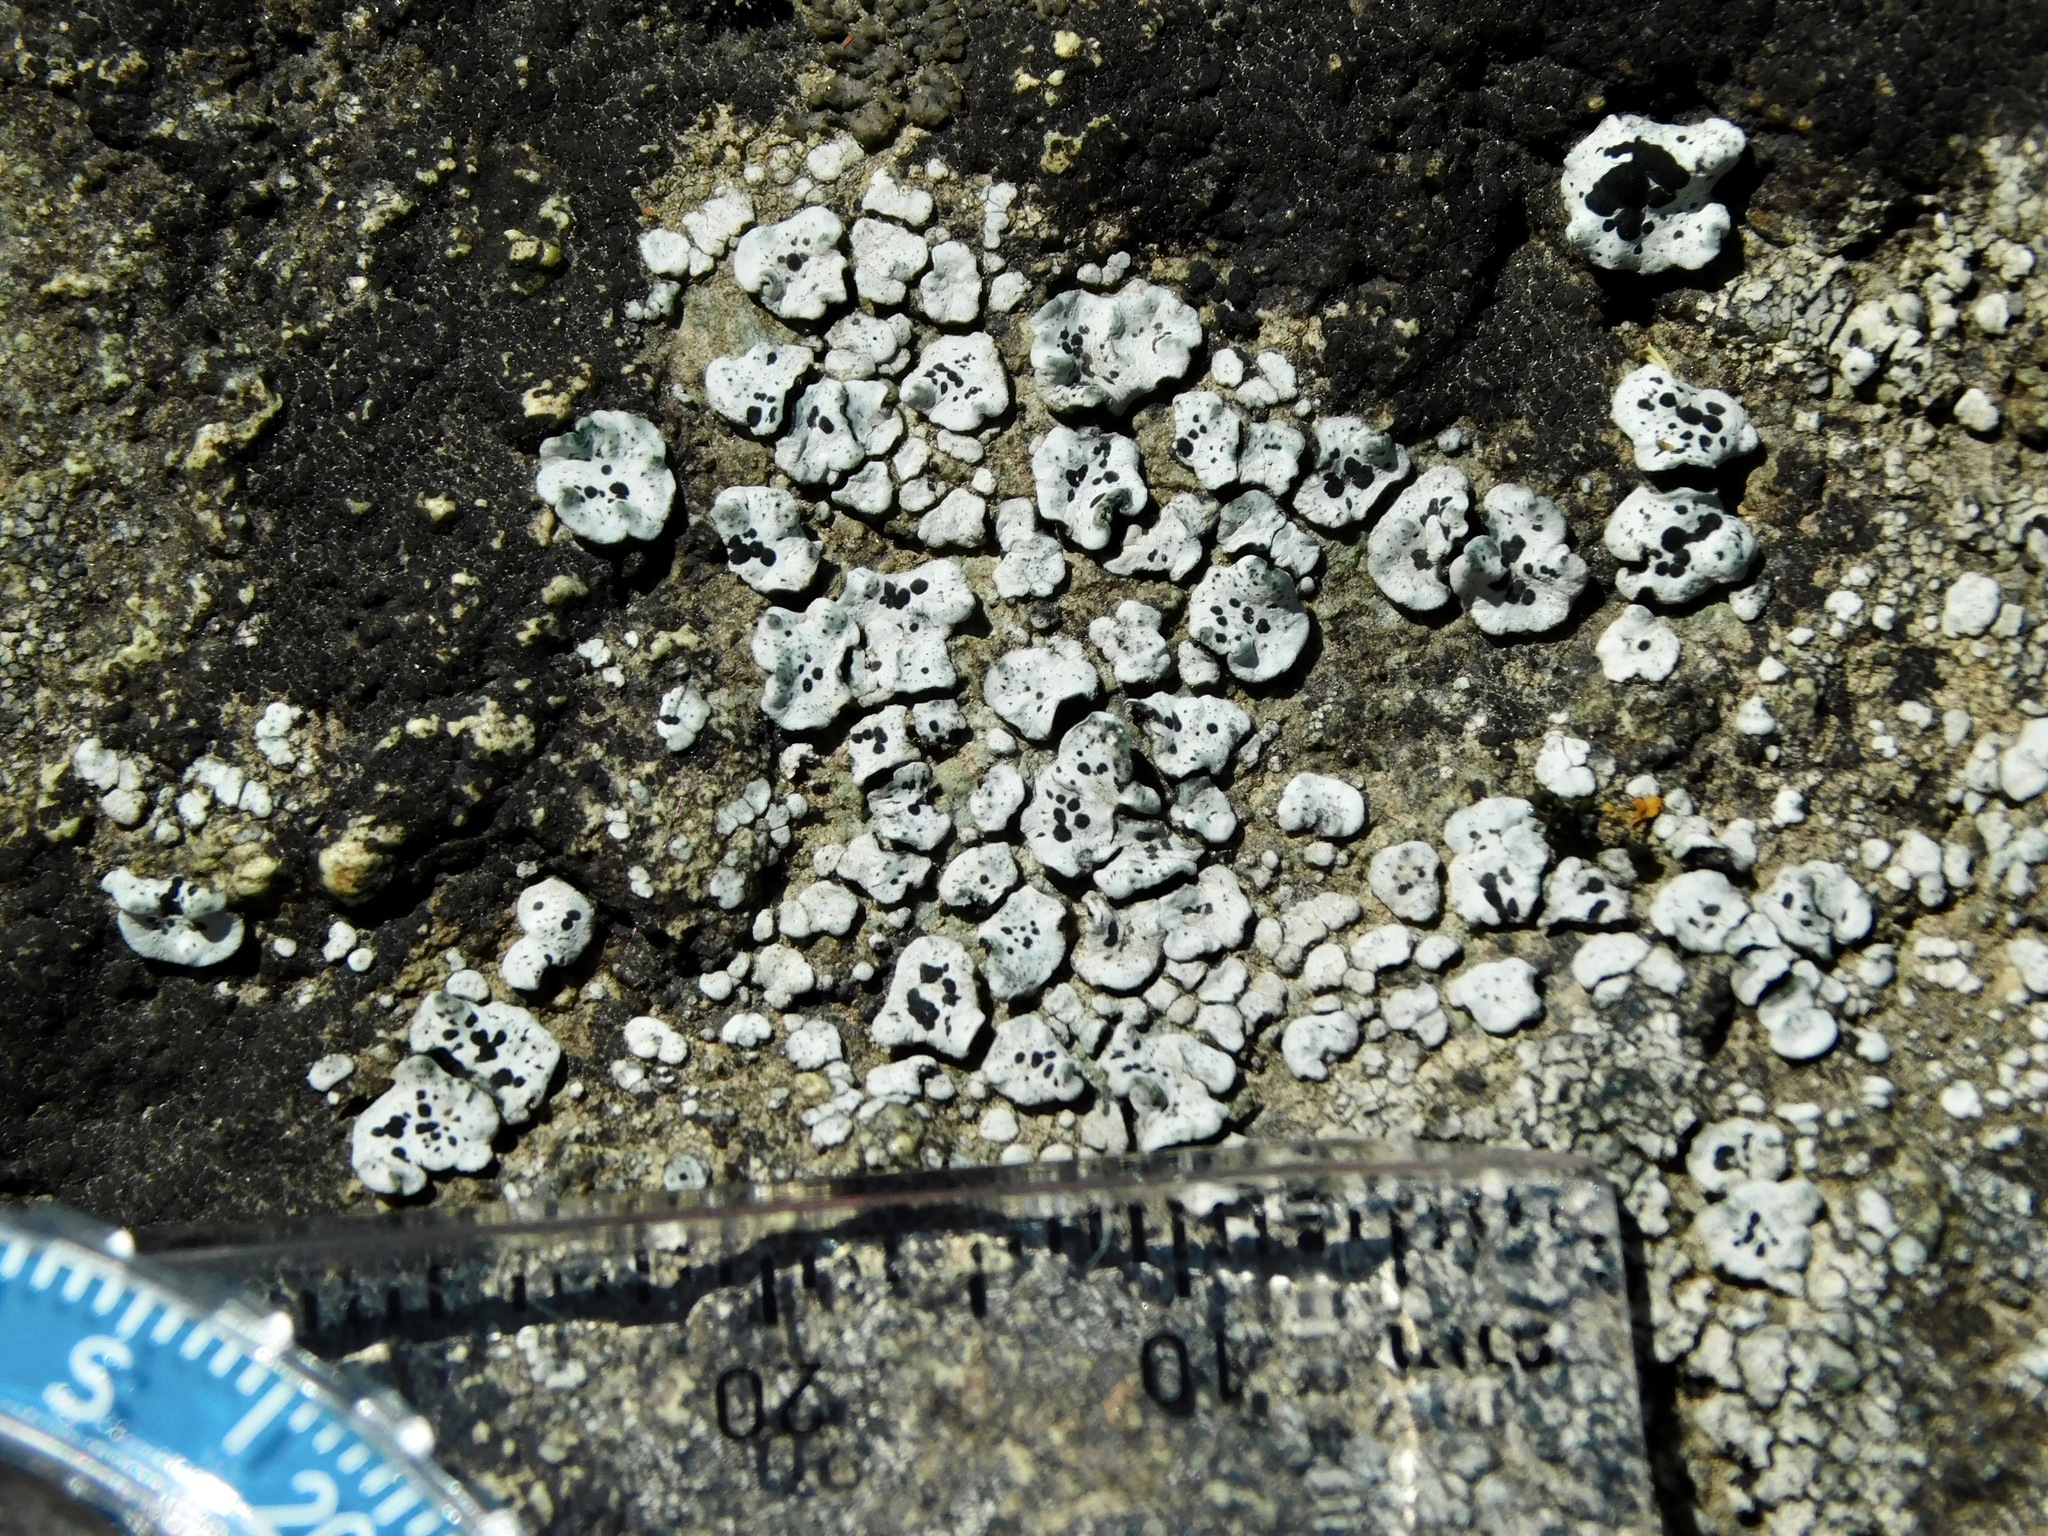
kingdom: Fungi
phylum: Ascomycota
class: Lecanoromycetes
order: Caliciales
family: Caliciaceae
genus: Dermiscellum
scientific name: Dermiscellum oulocheilum
